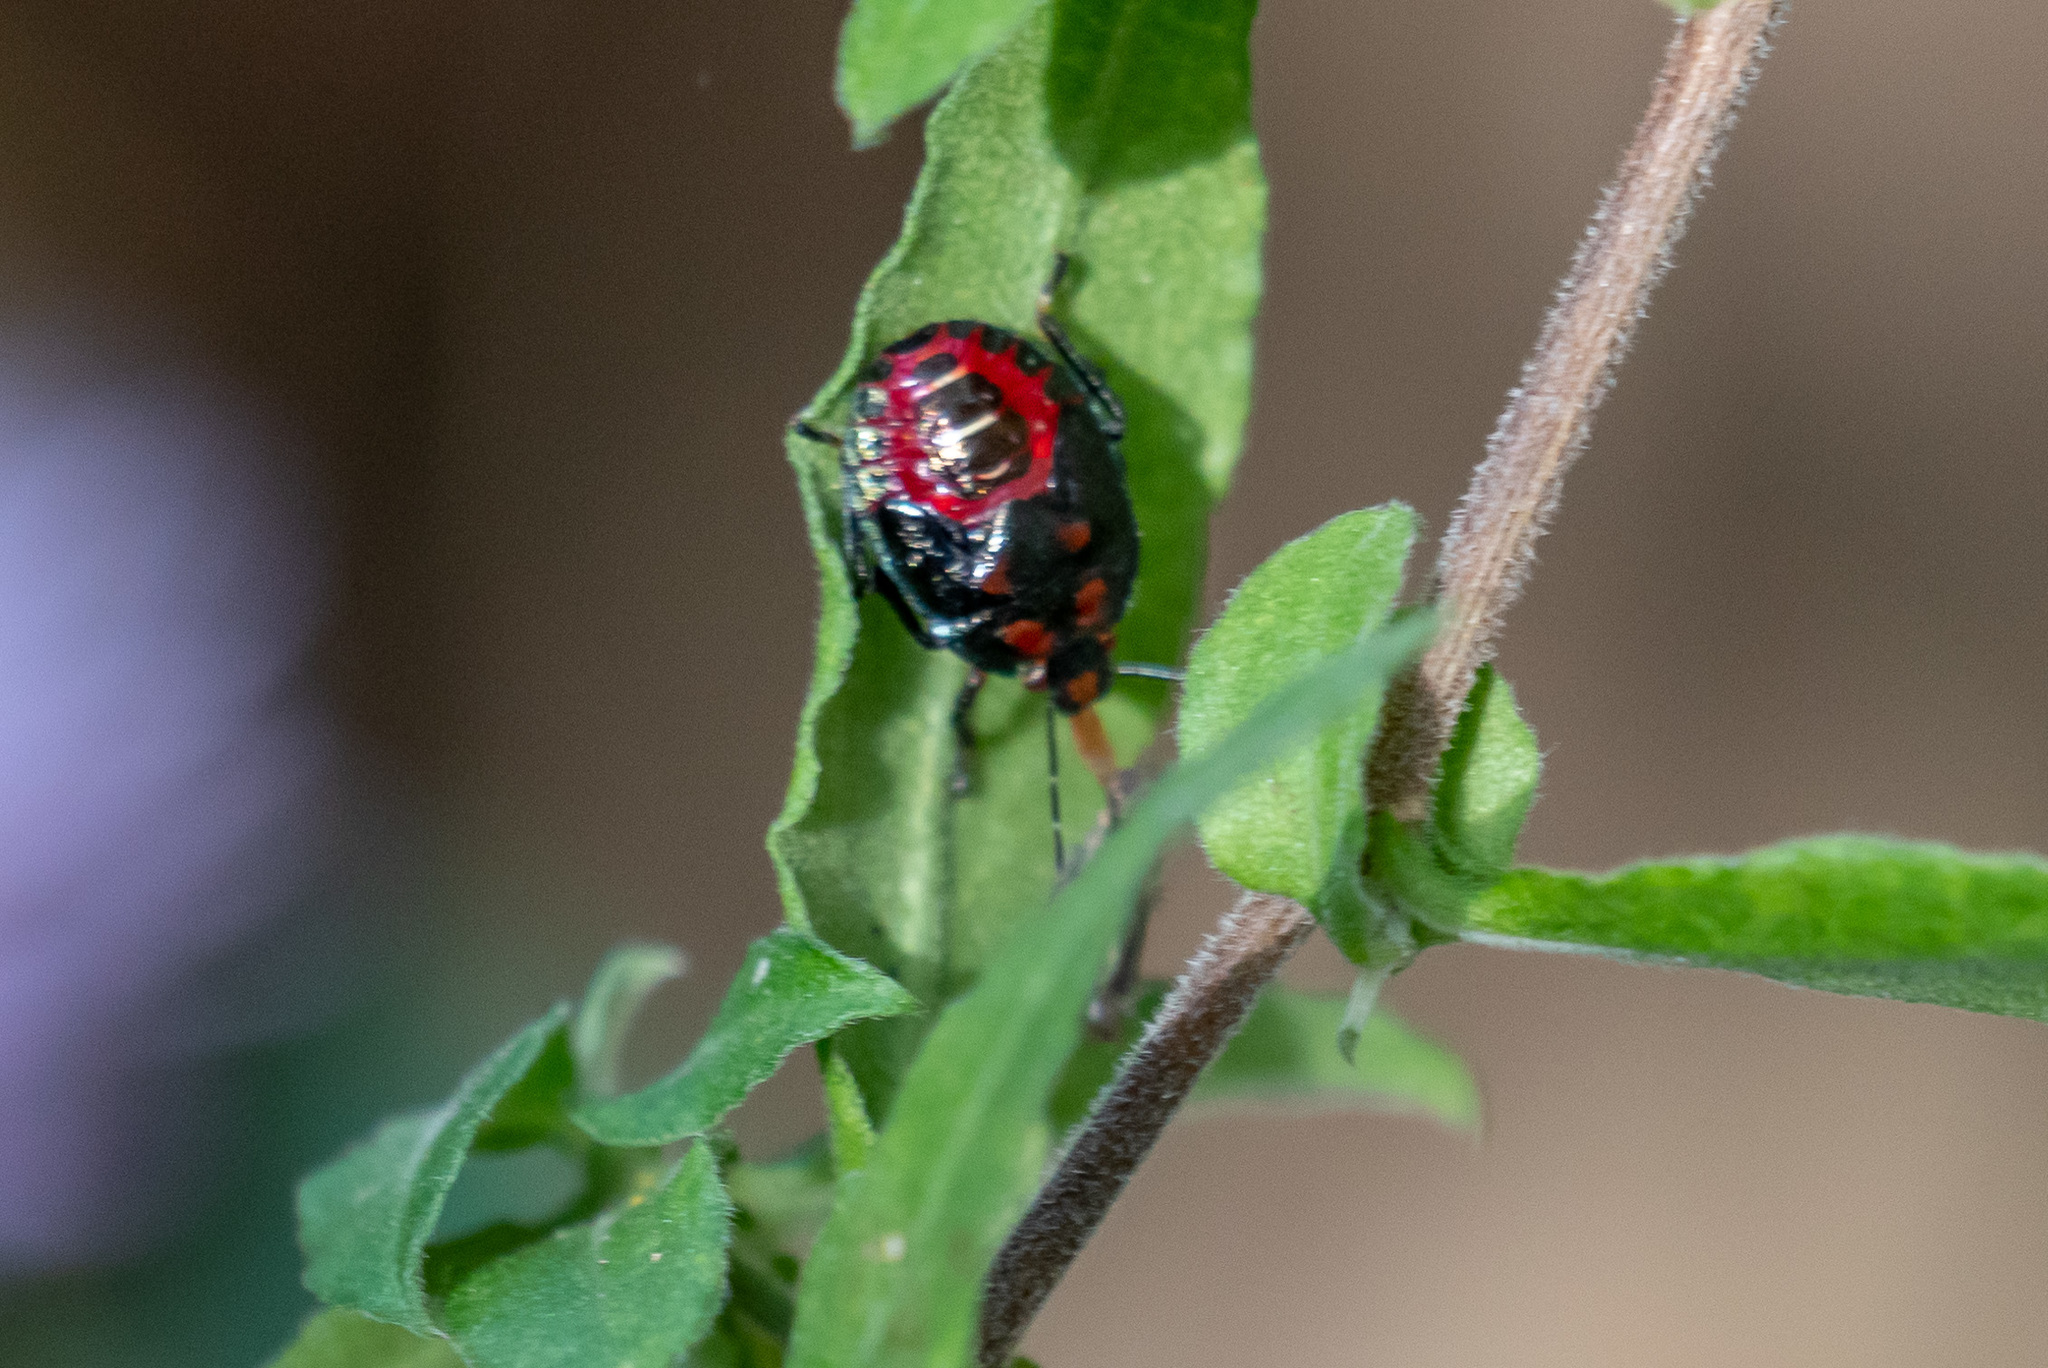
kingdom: Animalia
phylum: Arthropoda
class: Insecta
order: Hemiptera
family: Pentatomidae
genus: Perillus
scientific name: Perillus bioculatus
